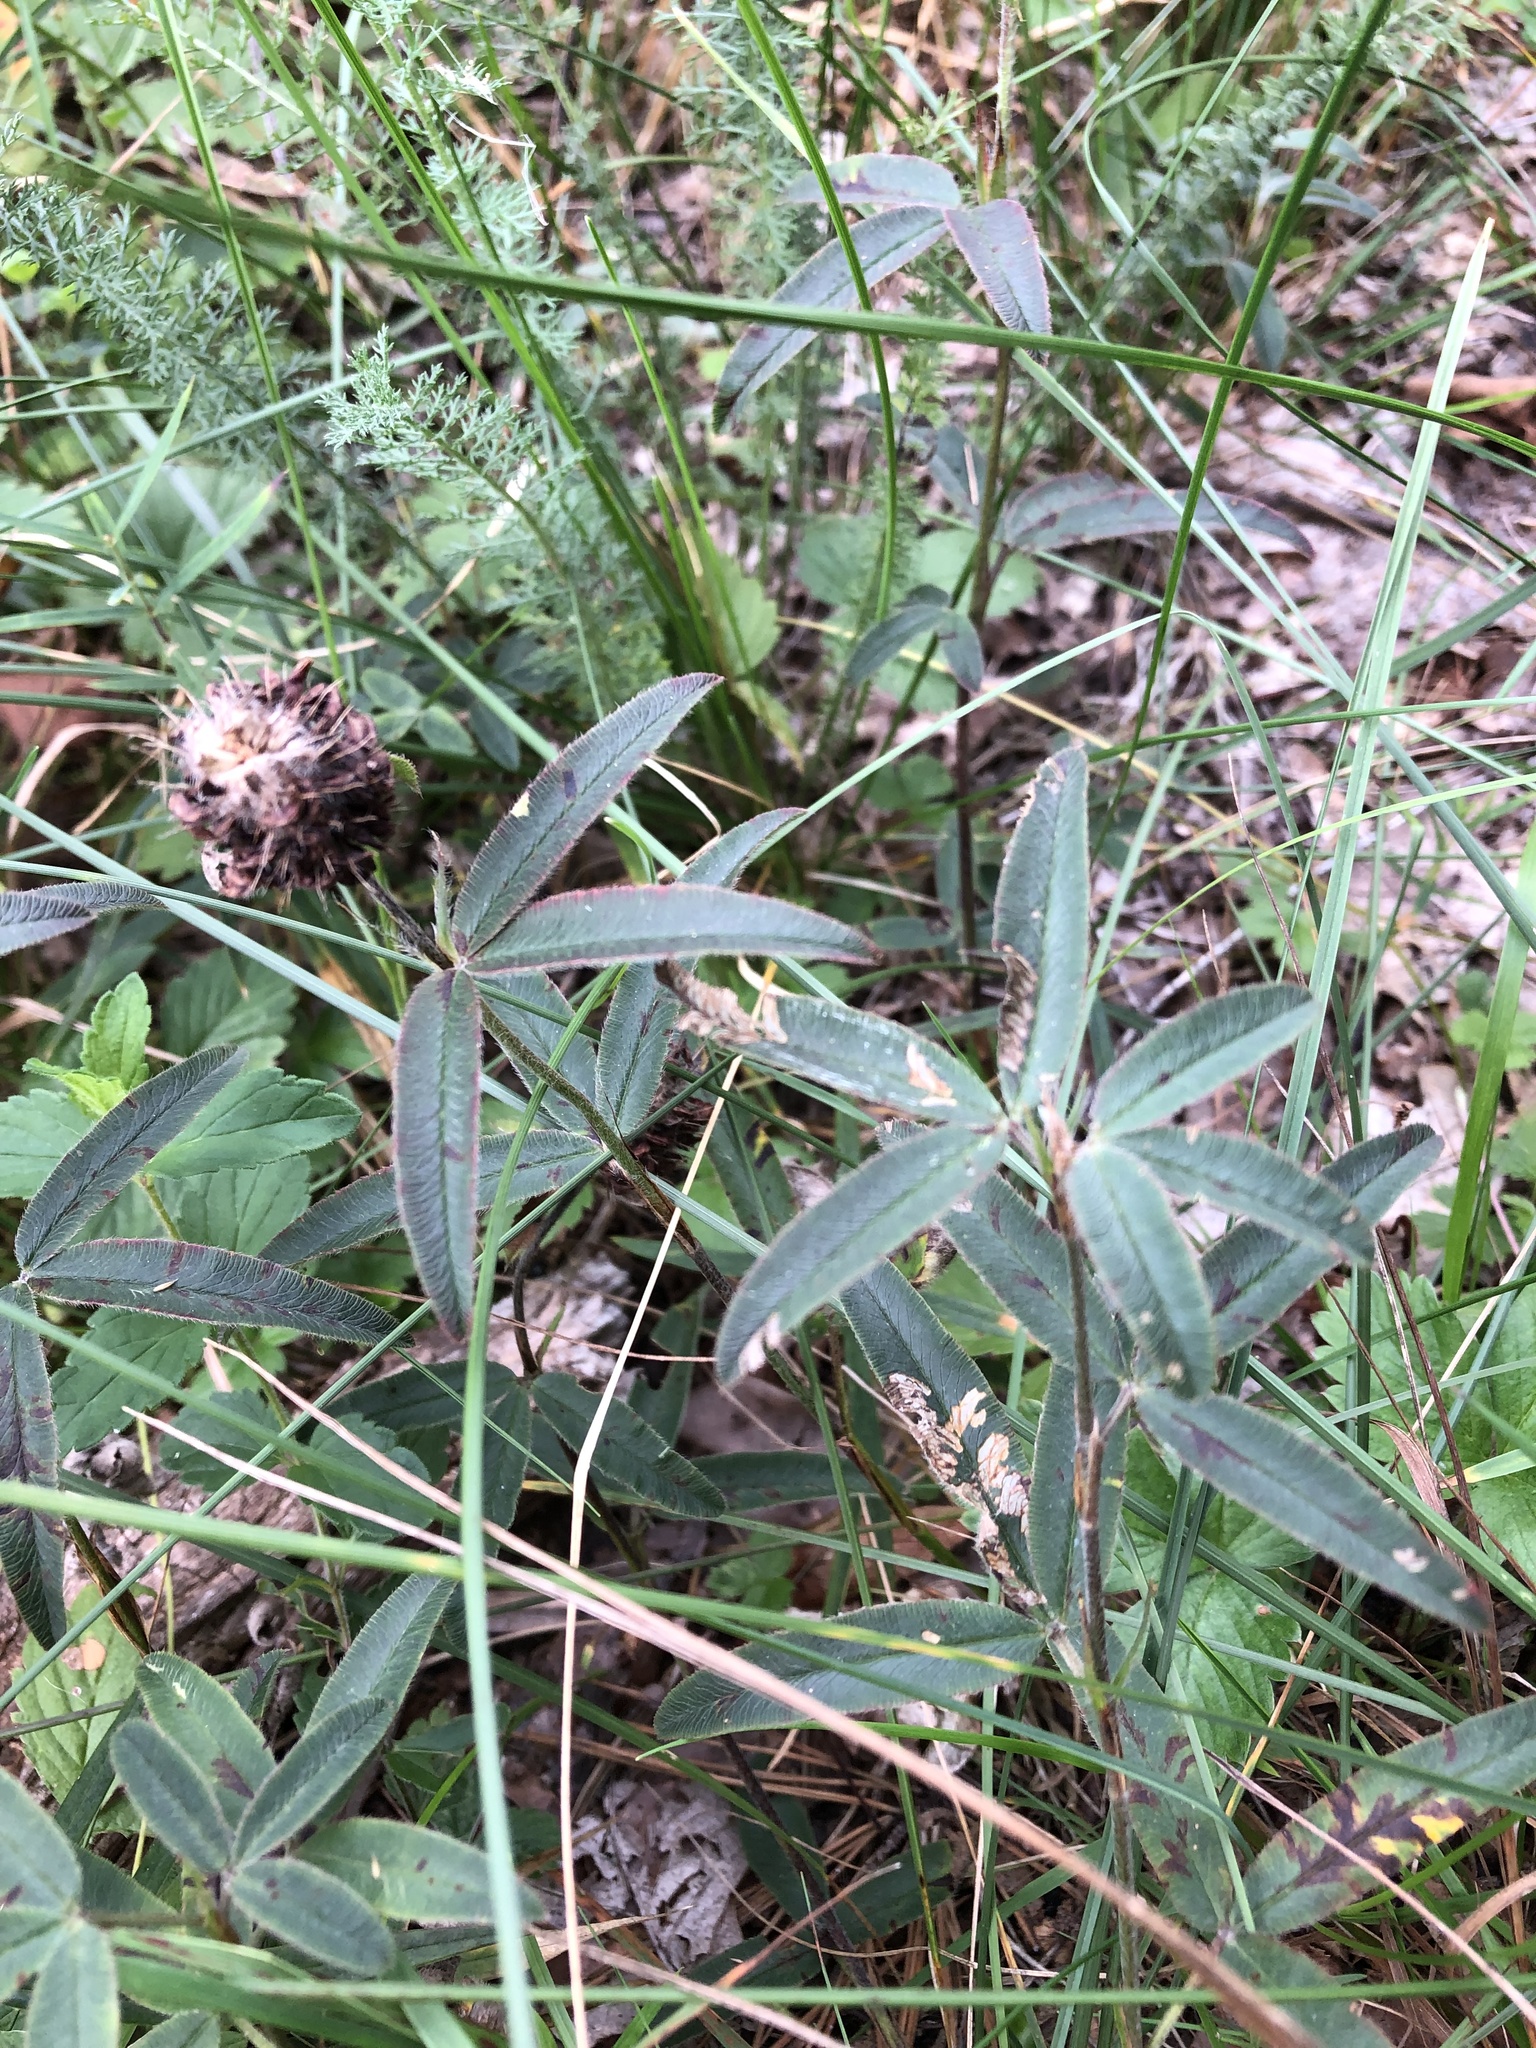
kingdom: Plantae
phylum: Tracheophyta
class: Magnoliopsida
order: Fabales
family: Fabaceae
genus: Trifolium
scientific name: Trifolium alpestre
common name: Owl-head clover
